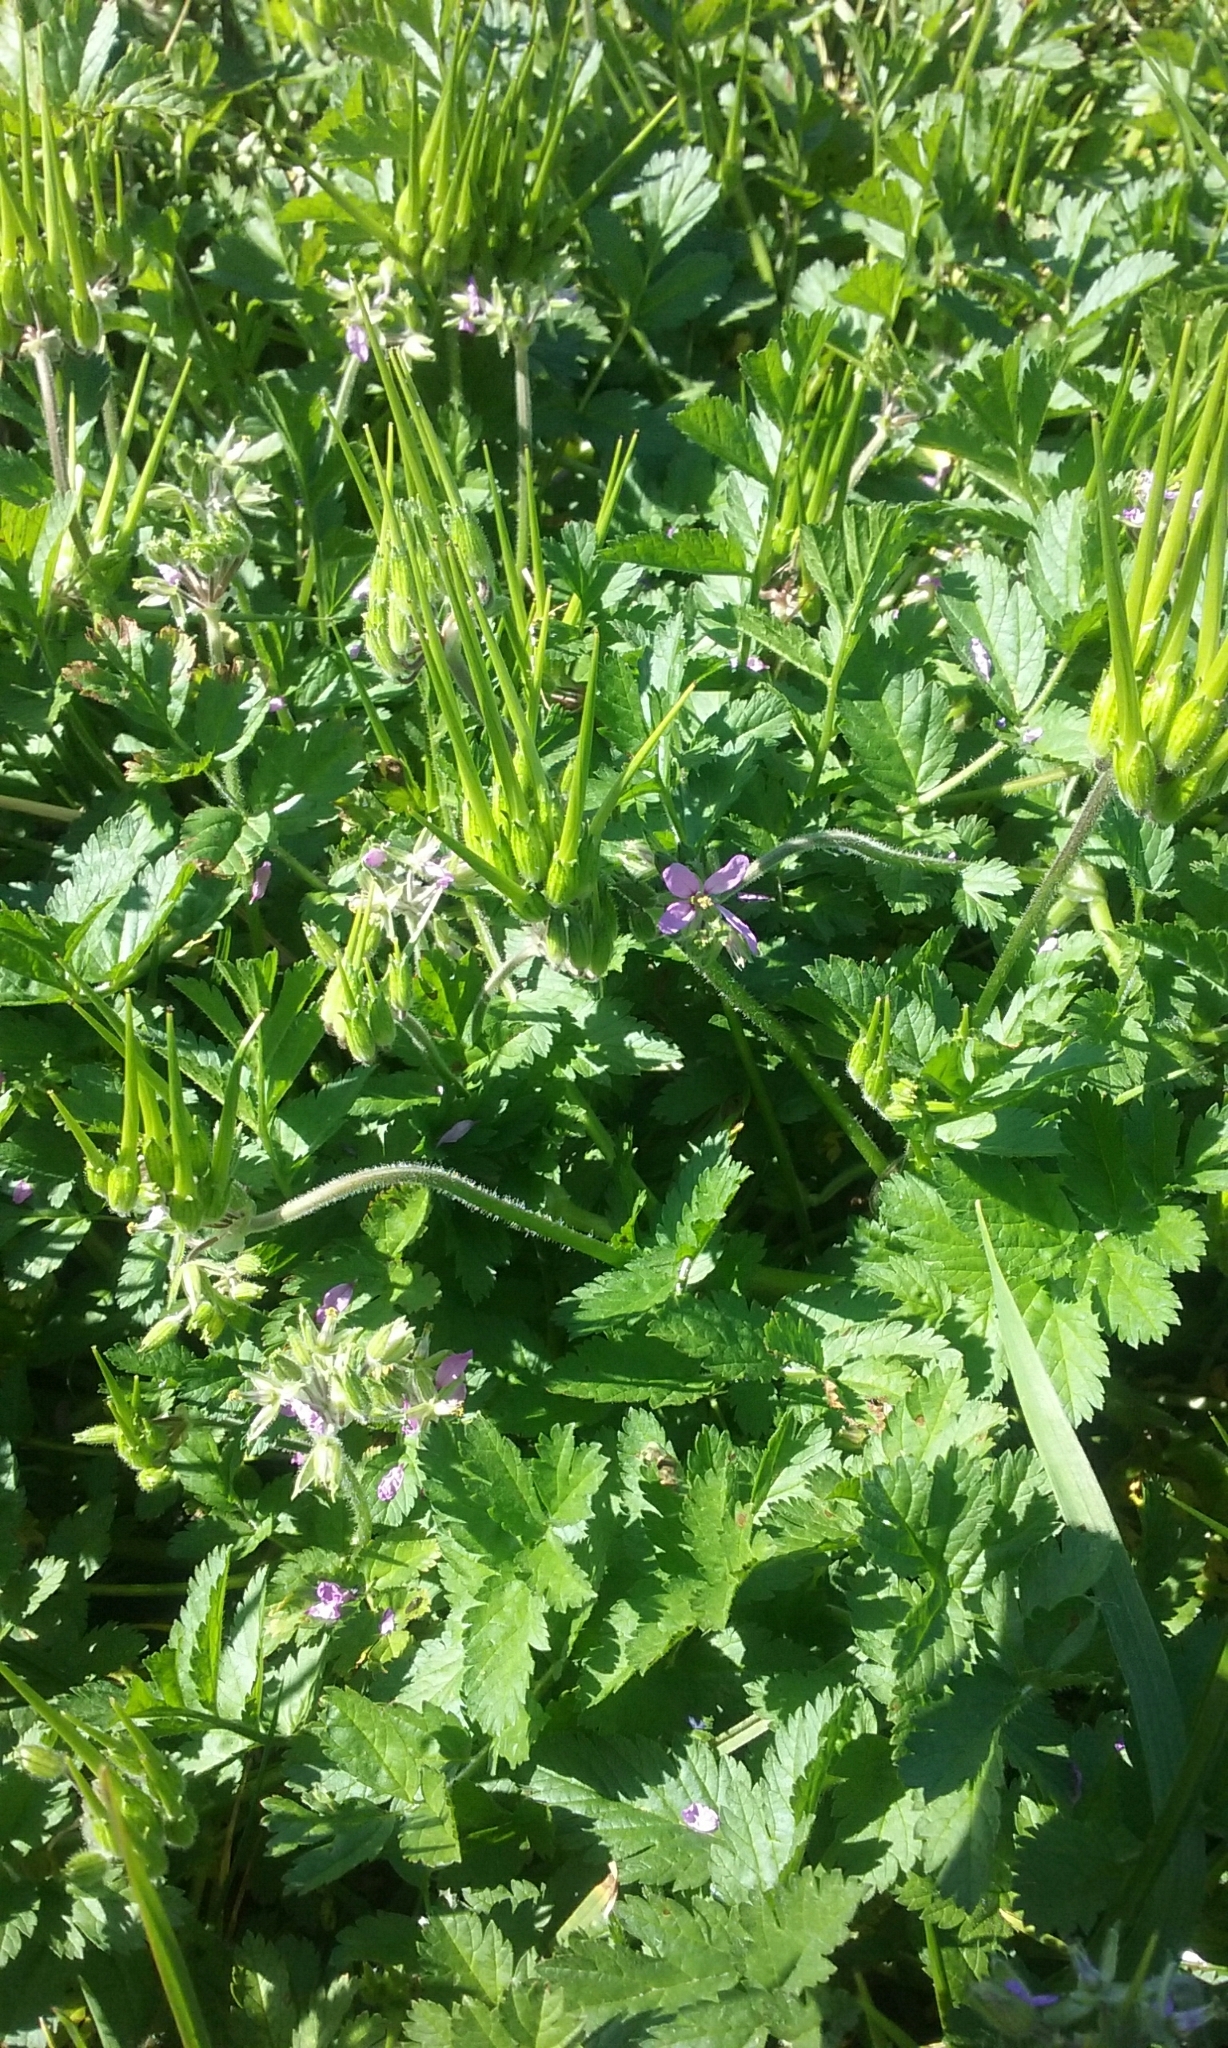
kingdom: Plantae
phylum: Tracheophyta
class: Magnoliopsida
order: Geraniales
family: Geraniaceae
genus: Erodium
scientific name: Erodium moschatum
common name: Musk stork's-bill
